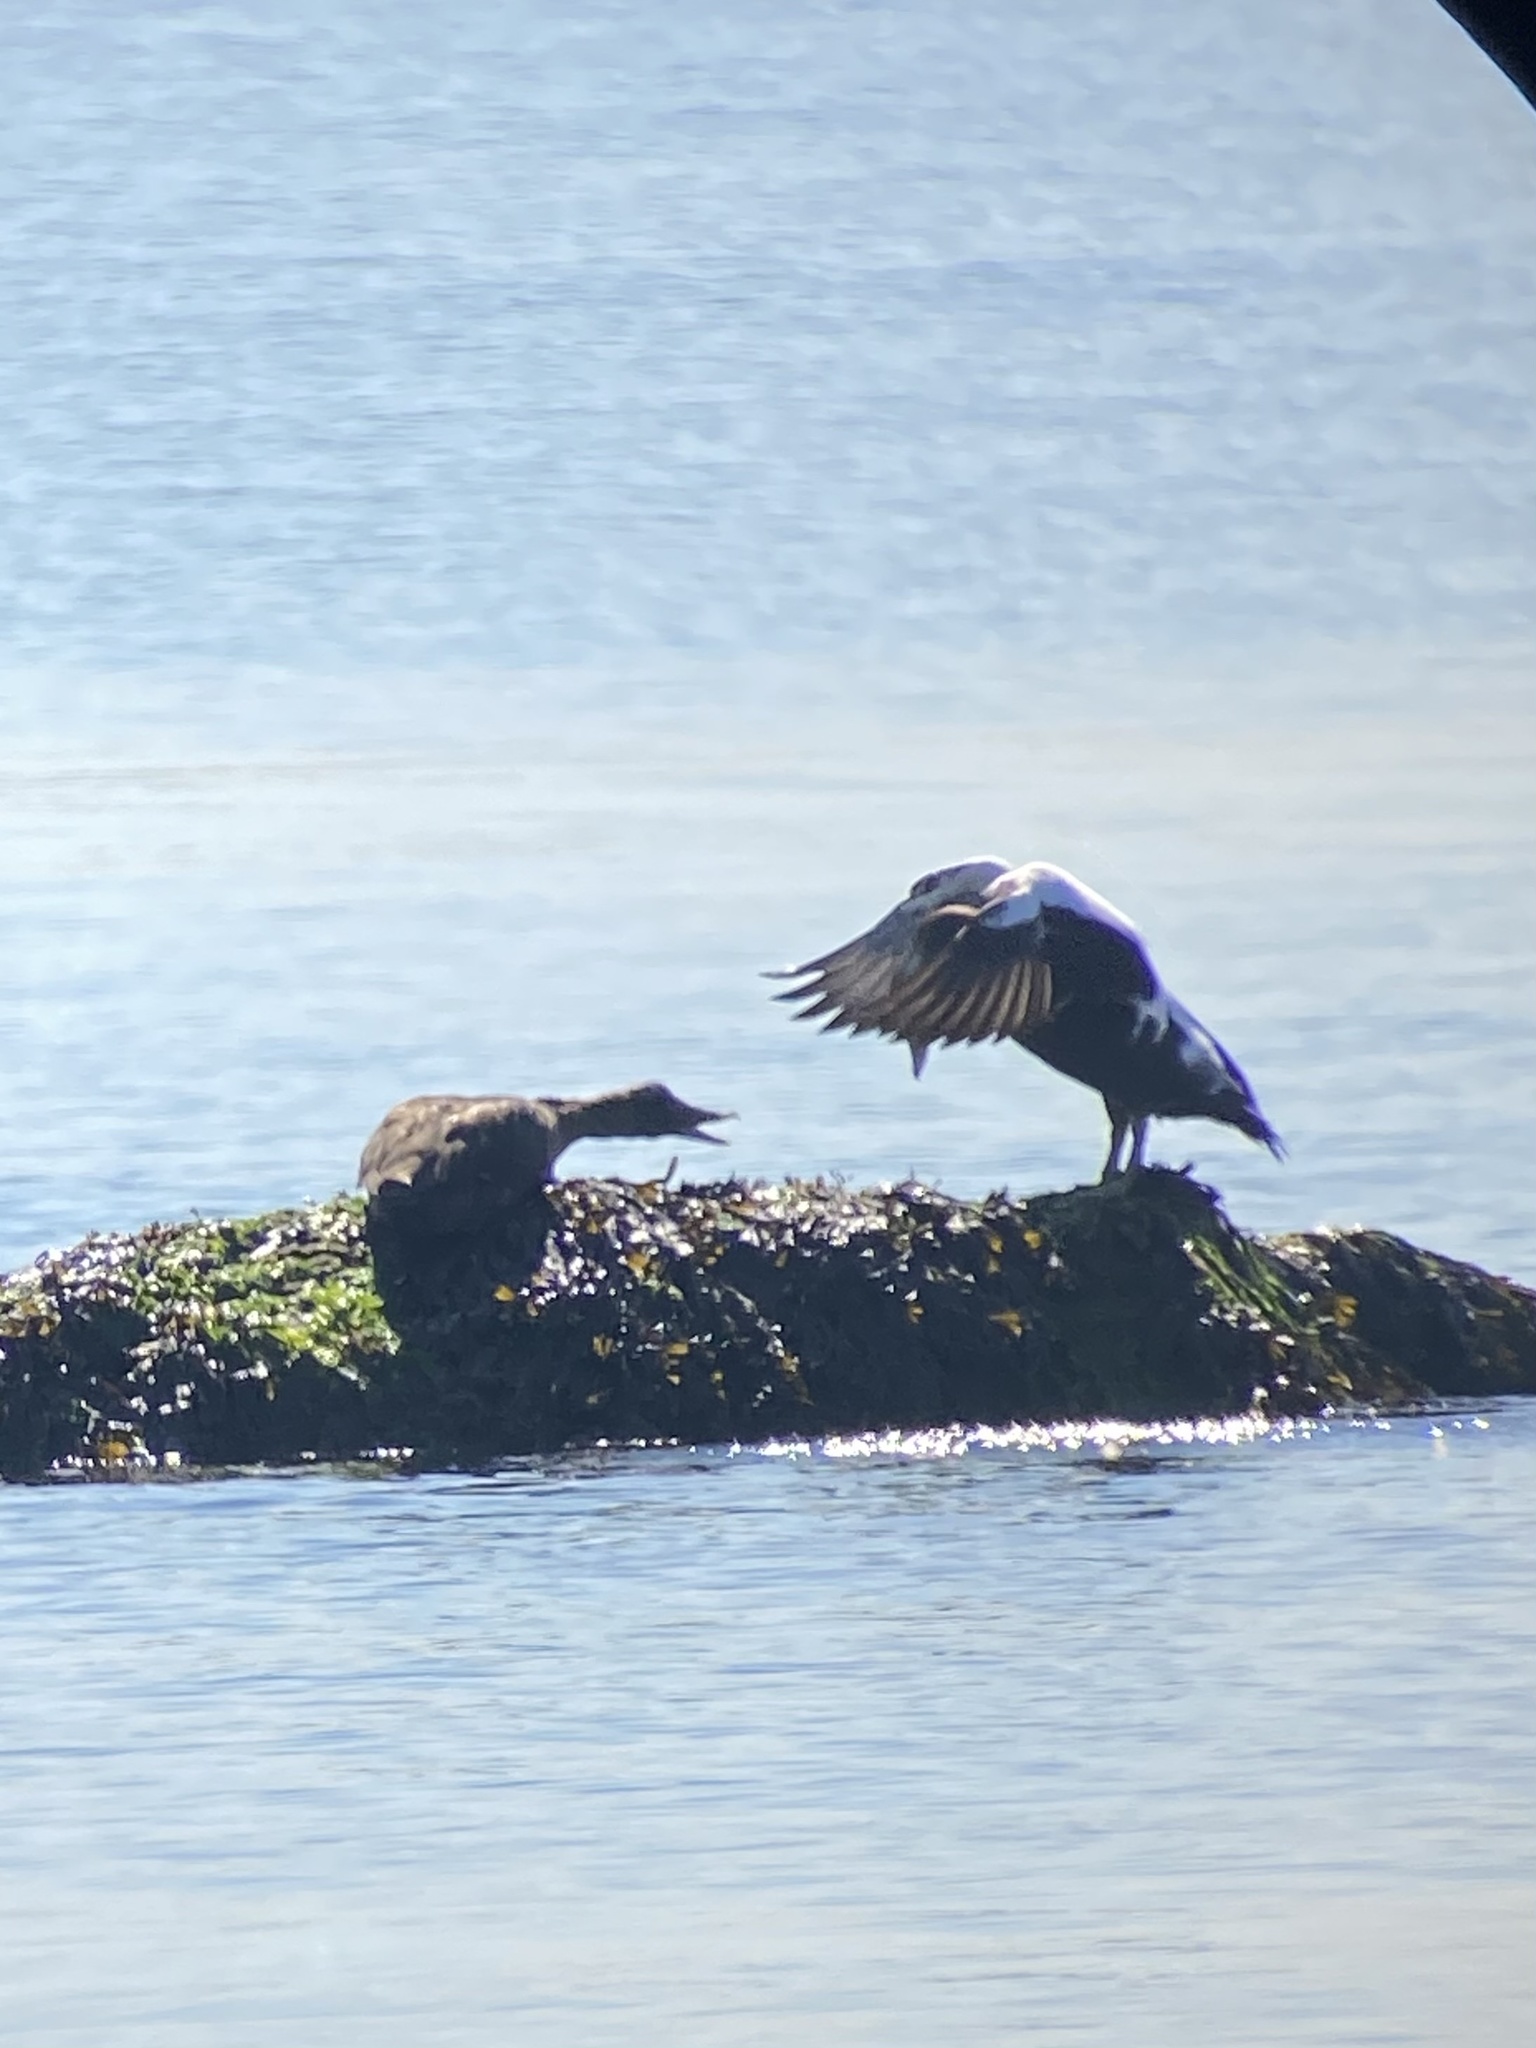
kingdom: Animalia
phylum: Chordata
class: Aves
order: Anseriformes
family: Anatidae
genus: Somateria
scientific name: Somateria mollissima
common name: Common eider
